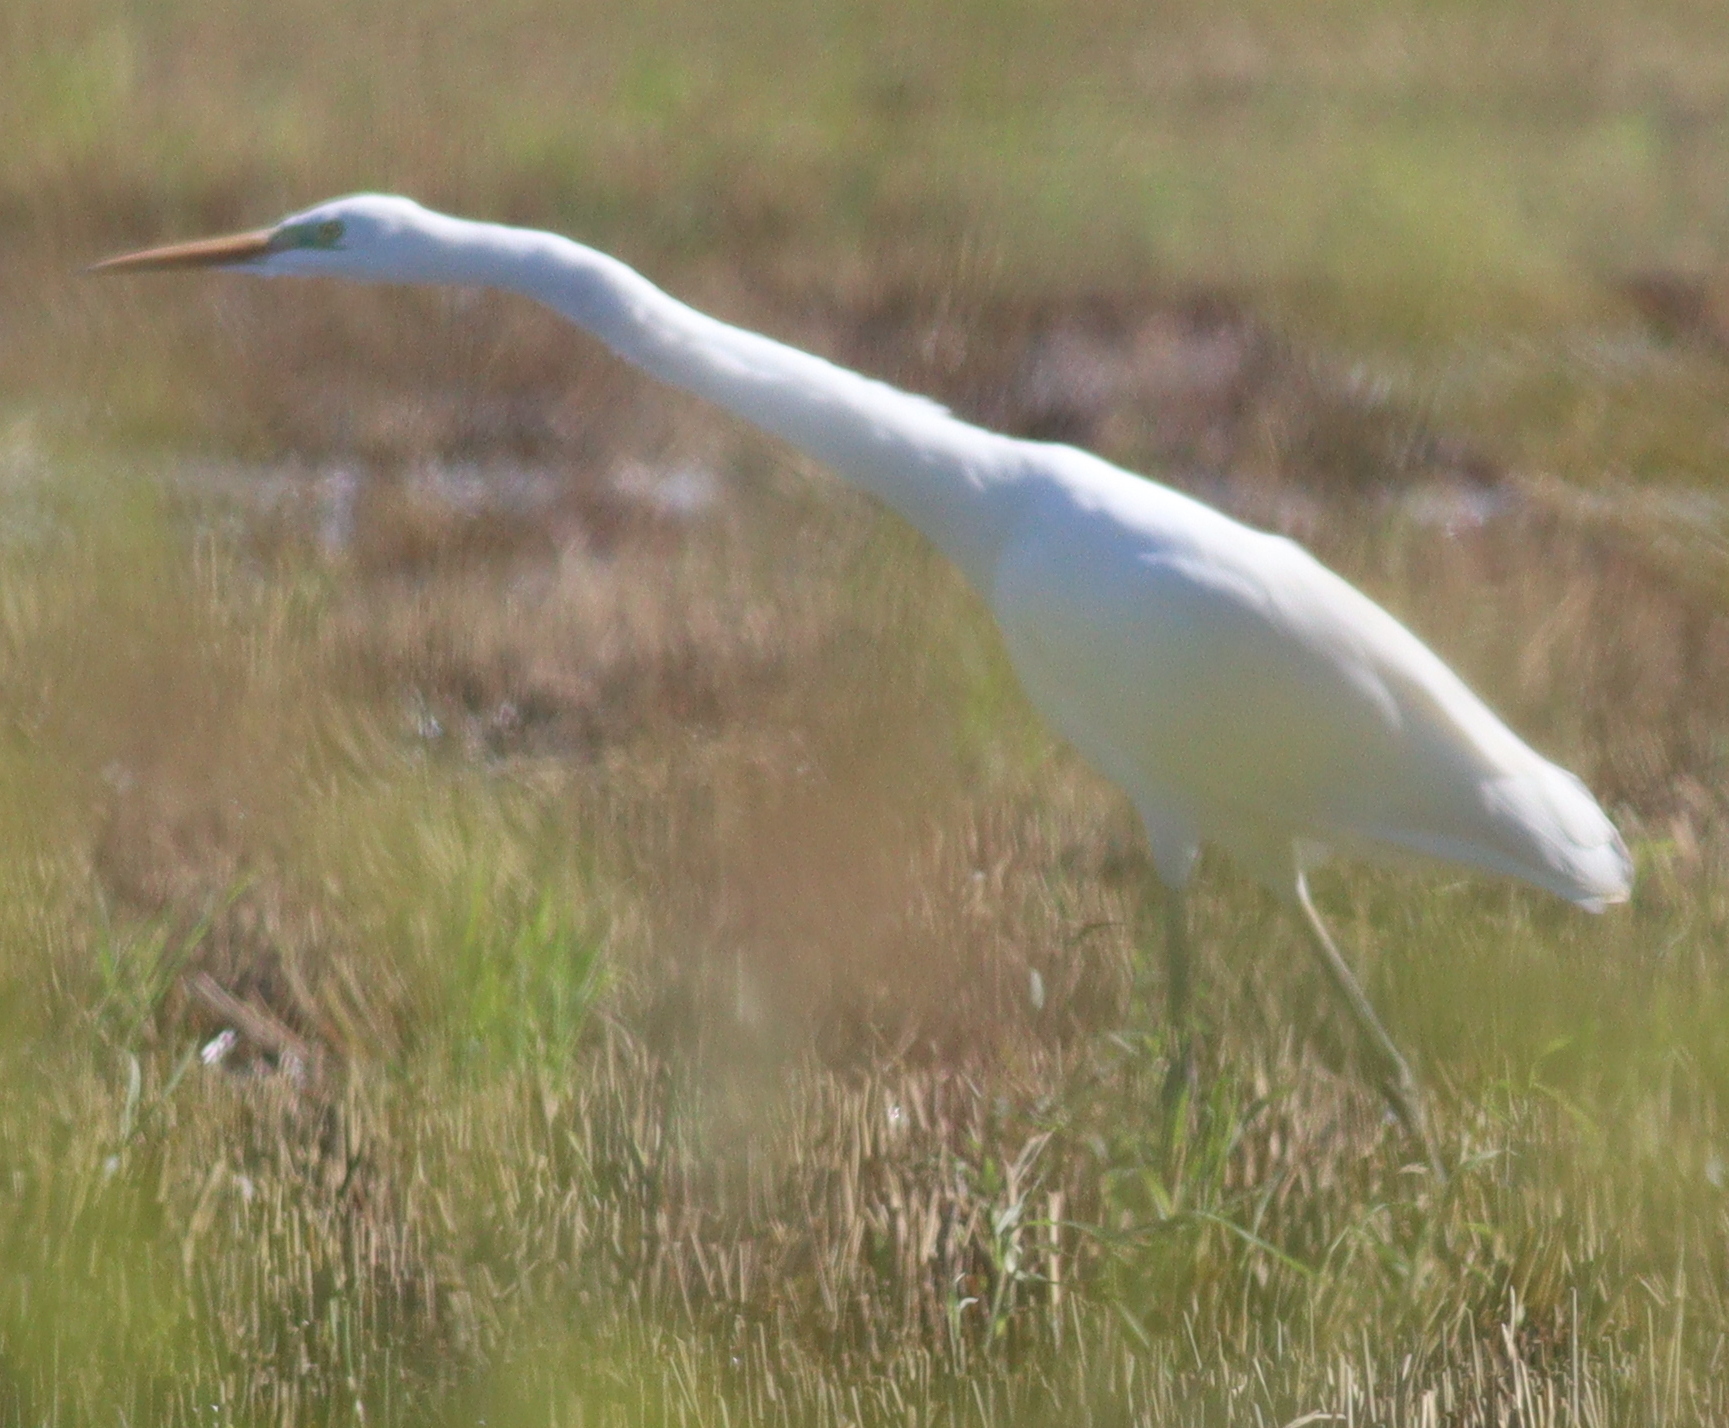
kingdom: Animalia
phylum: Chordata
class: Aves
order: Pelecaniformes
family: Ardeidae
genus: Ardea
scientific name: Ardea alba
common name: Great egret
